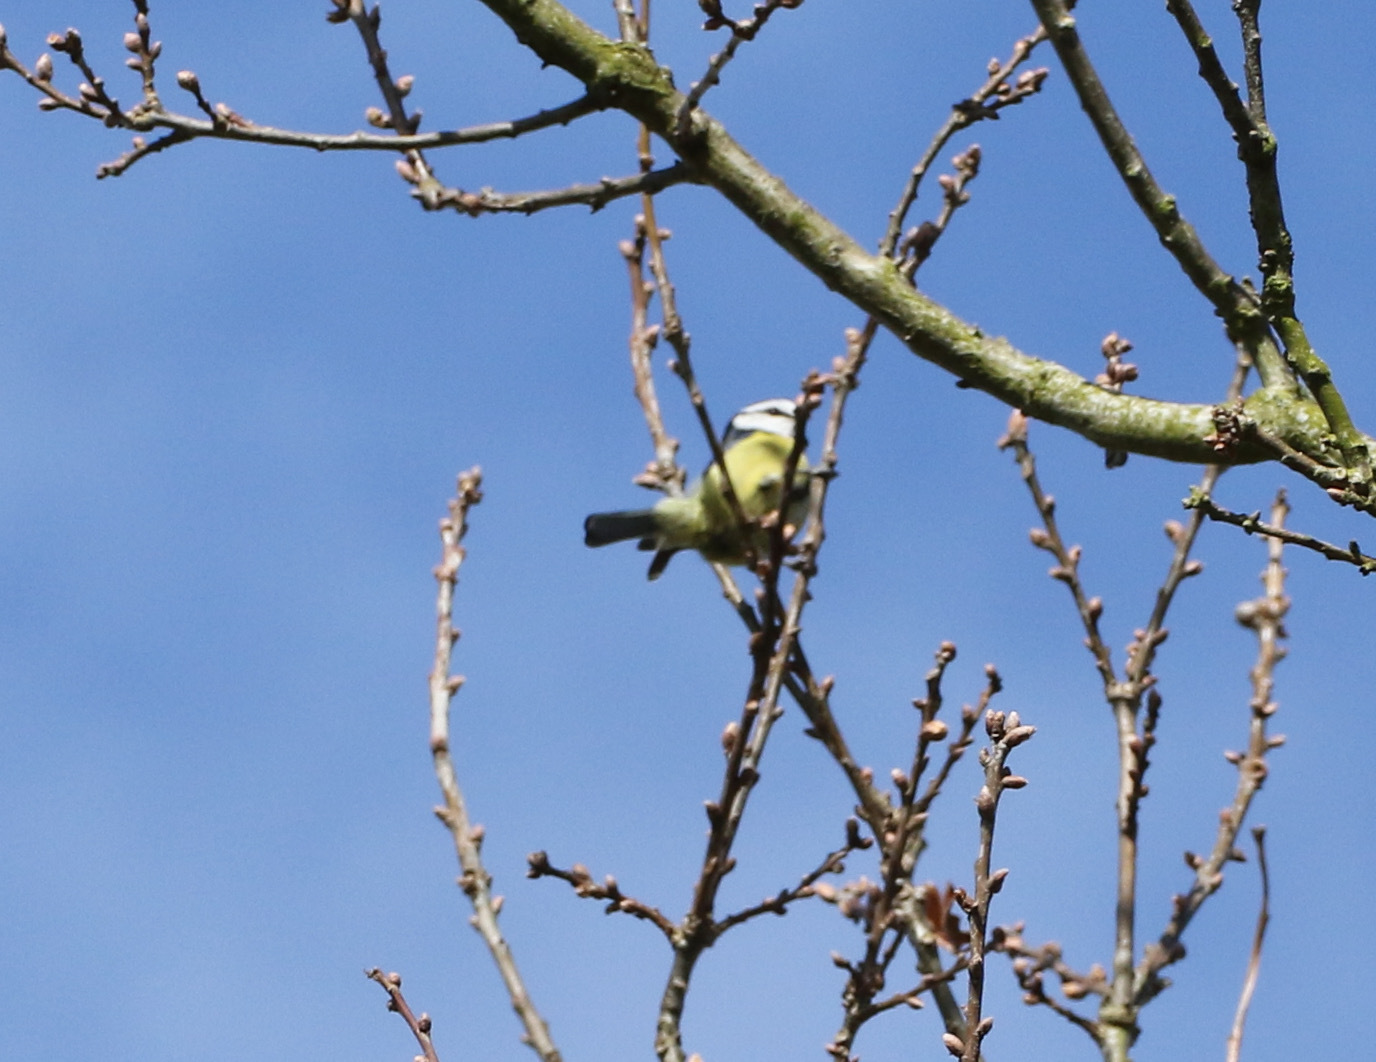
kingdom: Animalia
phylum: Chordata
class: Aves
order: Passeriformes
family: Paridae
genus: Cyanistes
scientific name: Cyanistes caeruleus
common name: Eurasian blue tit
